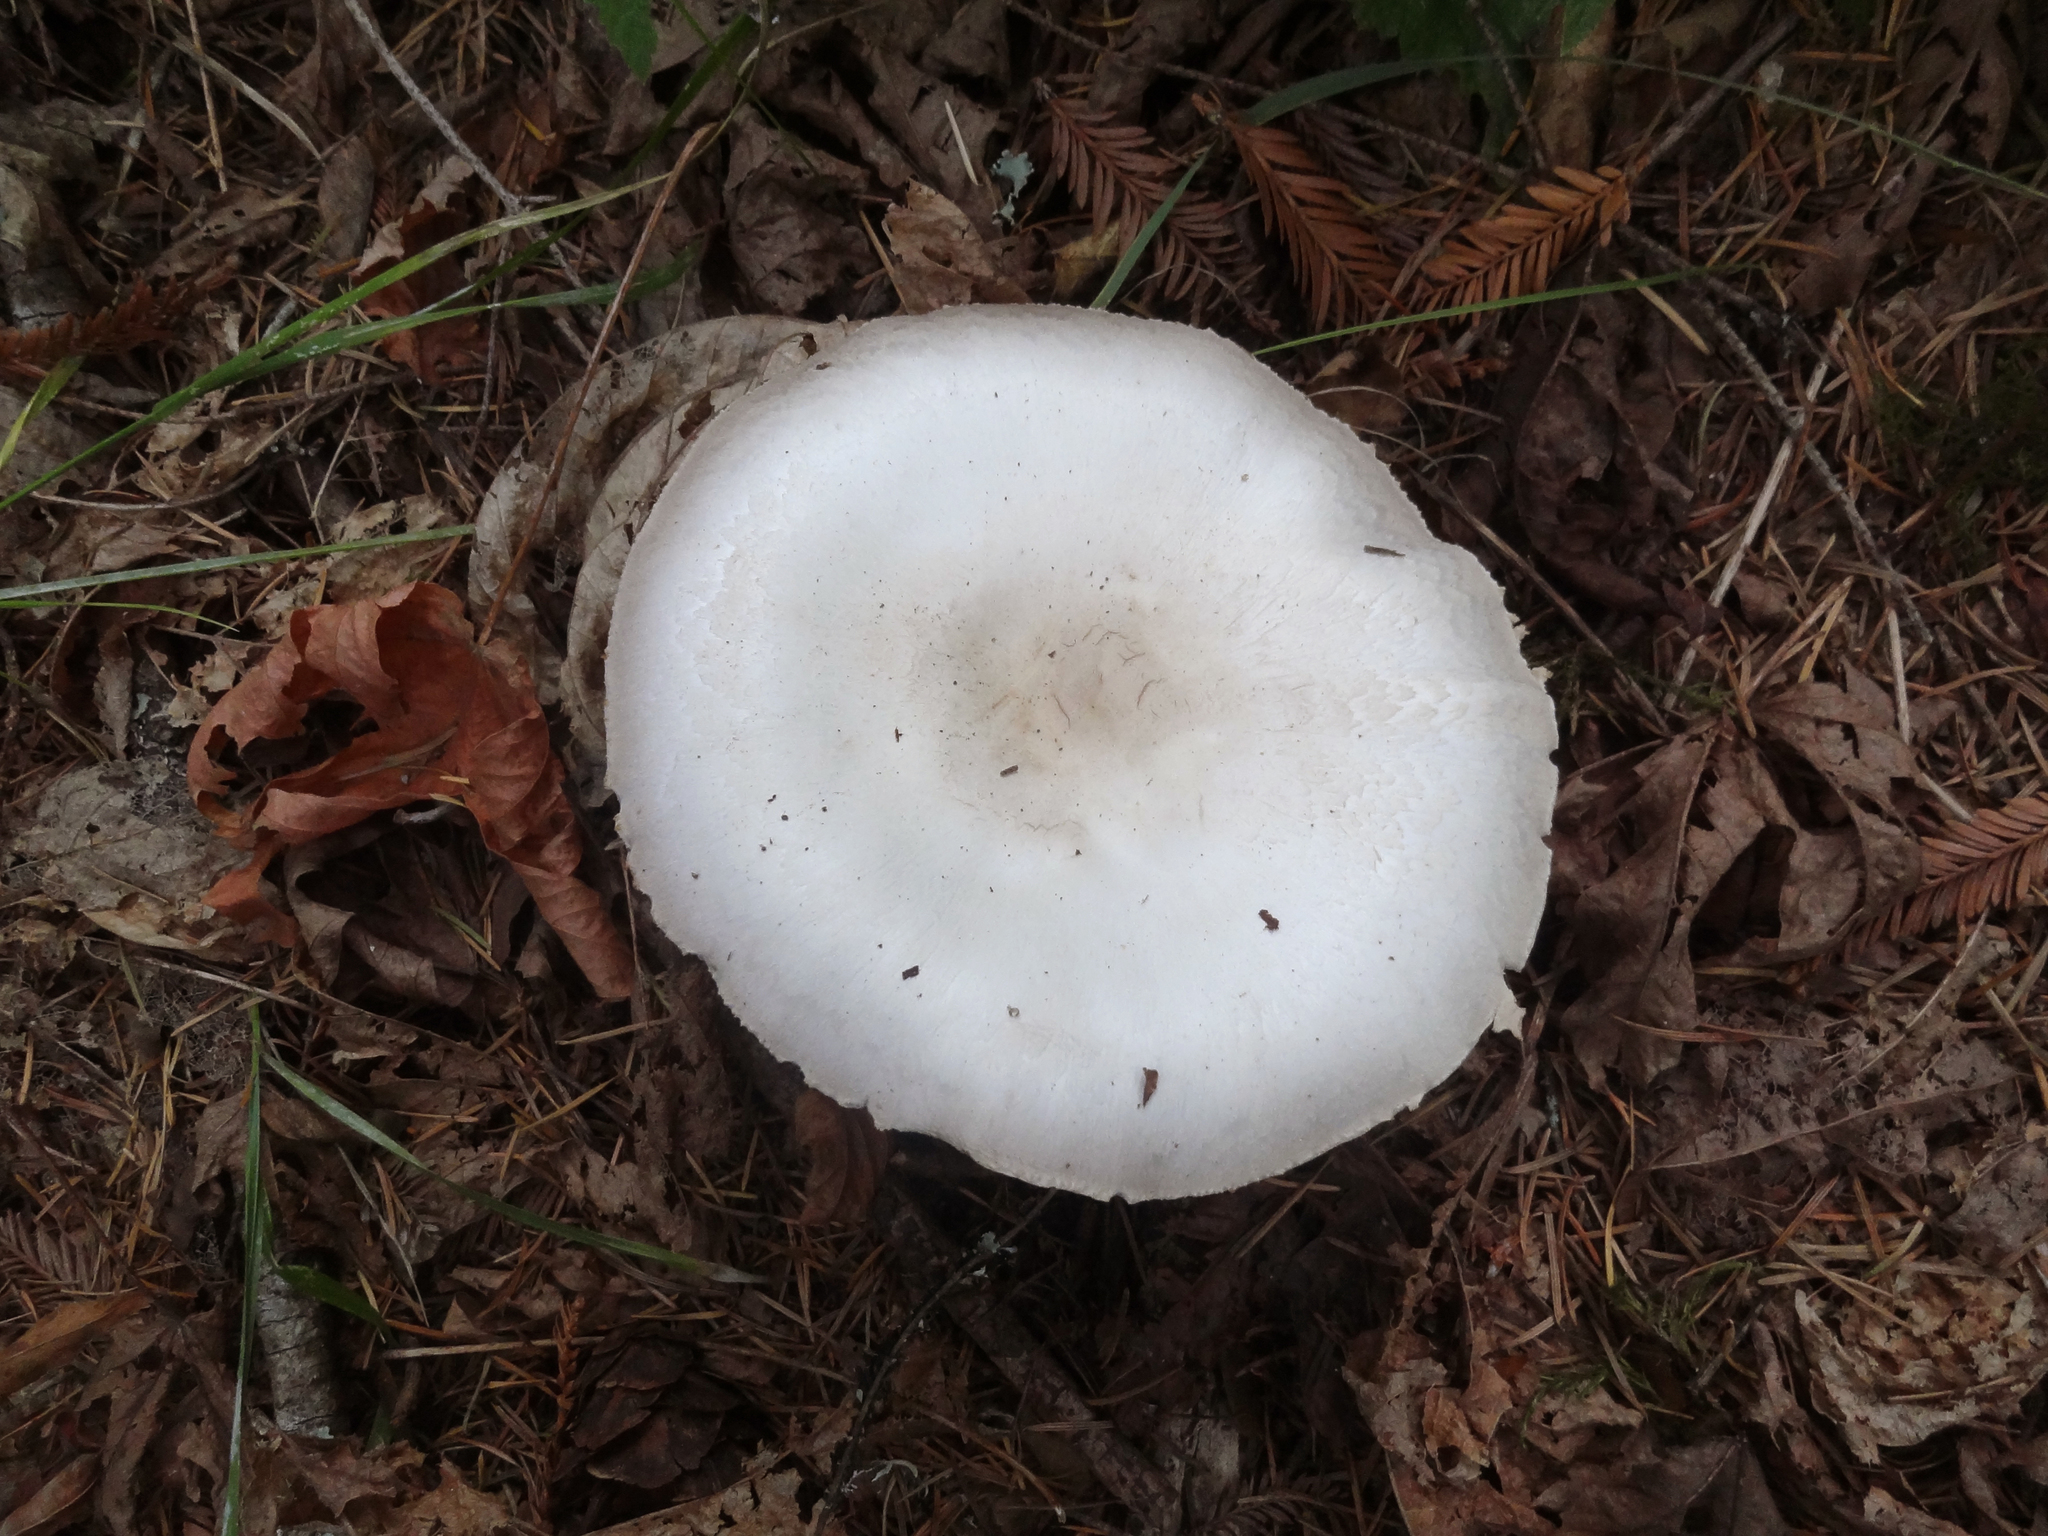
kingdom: Fungi
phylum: Basidiomycota
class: Agaricomycetes
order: Agaricales
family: Agaricaceae
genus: Agaricus
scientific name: Agaricus xanthodermus
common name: Yellow stainer
